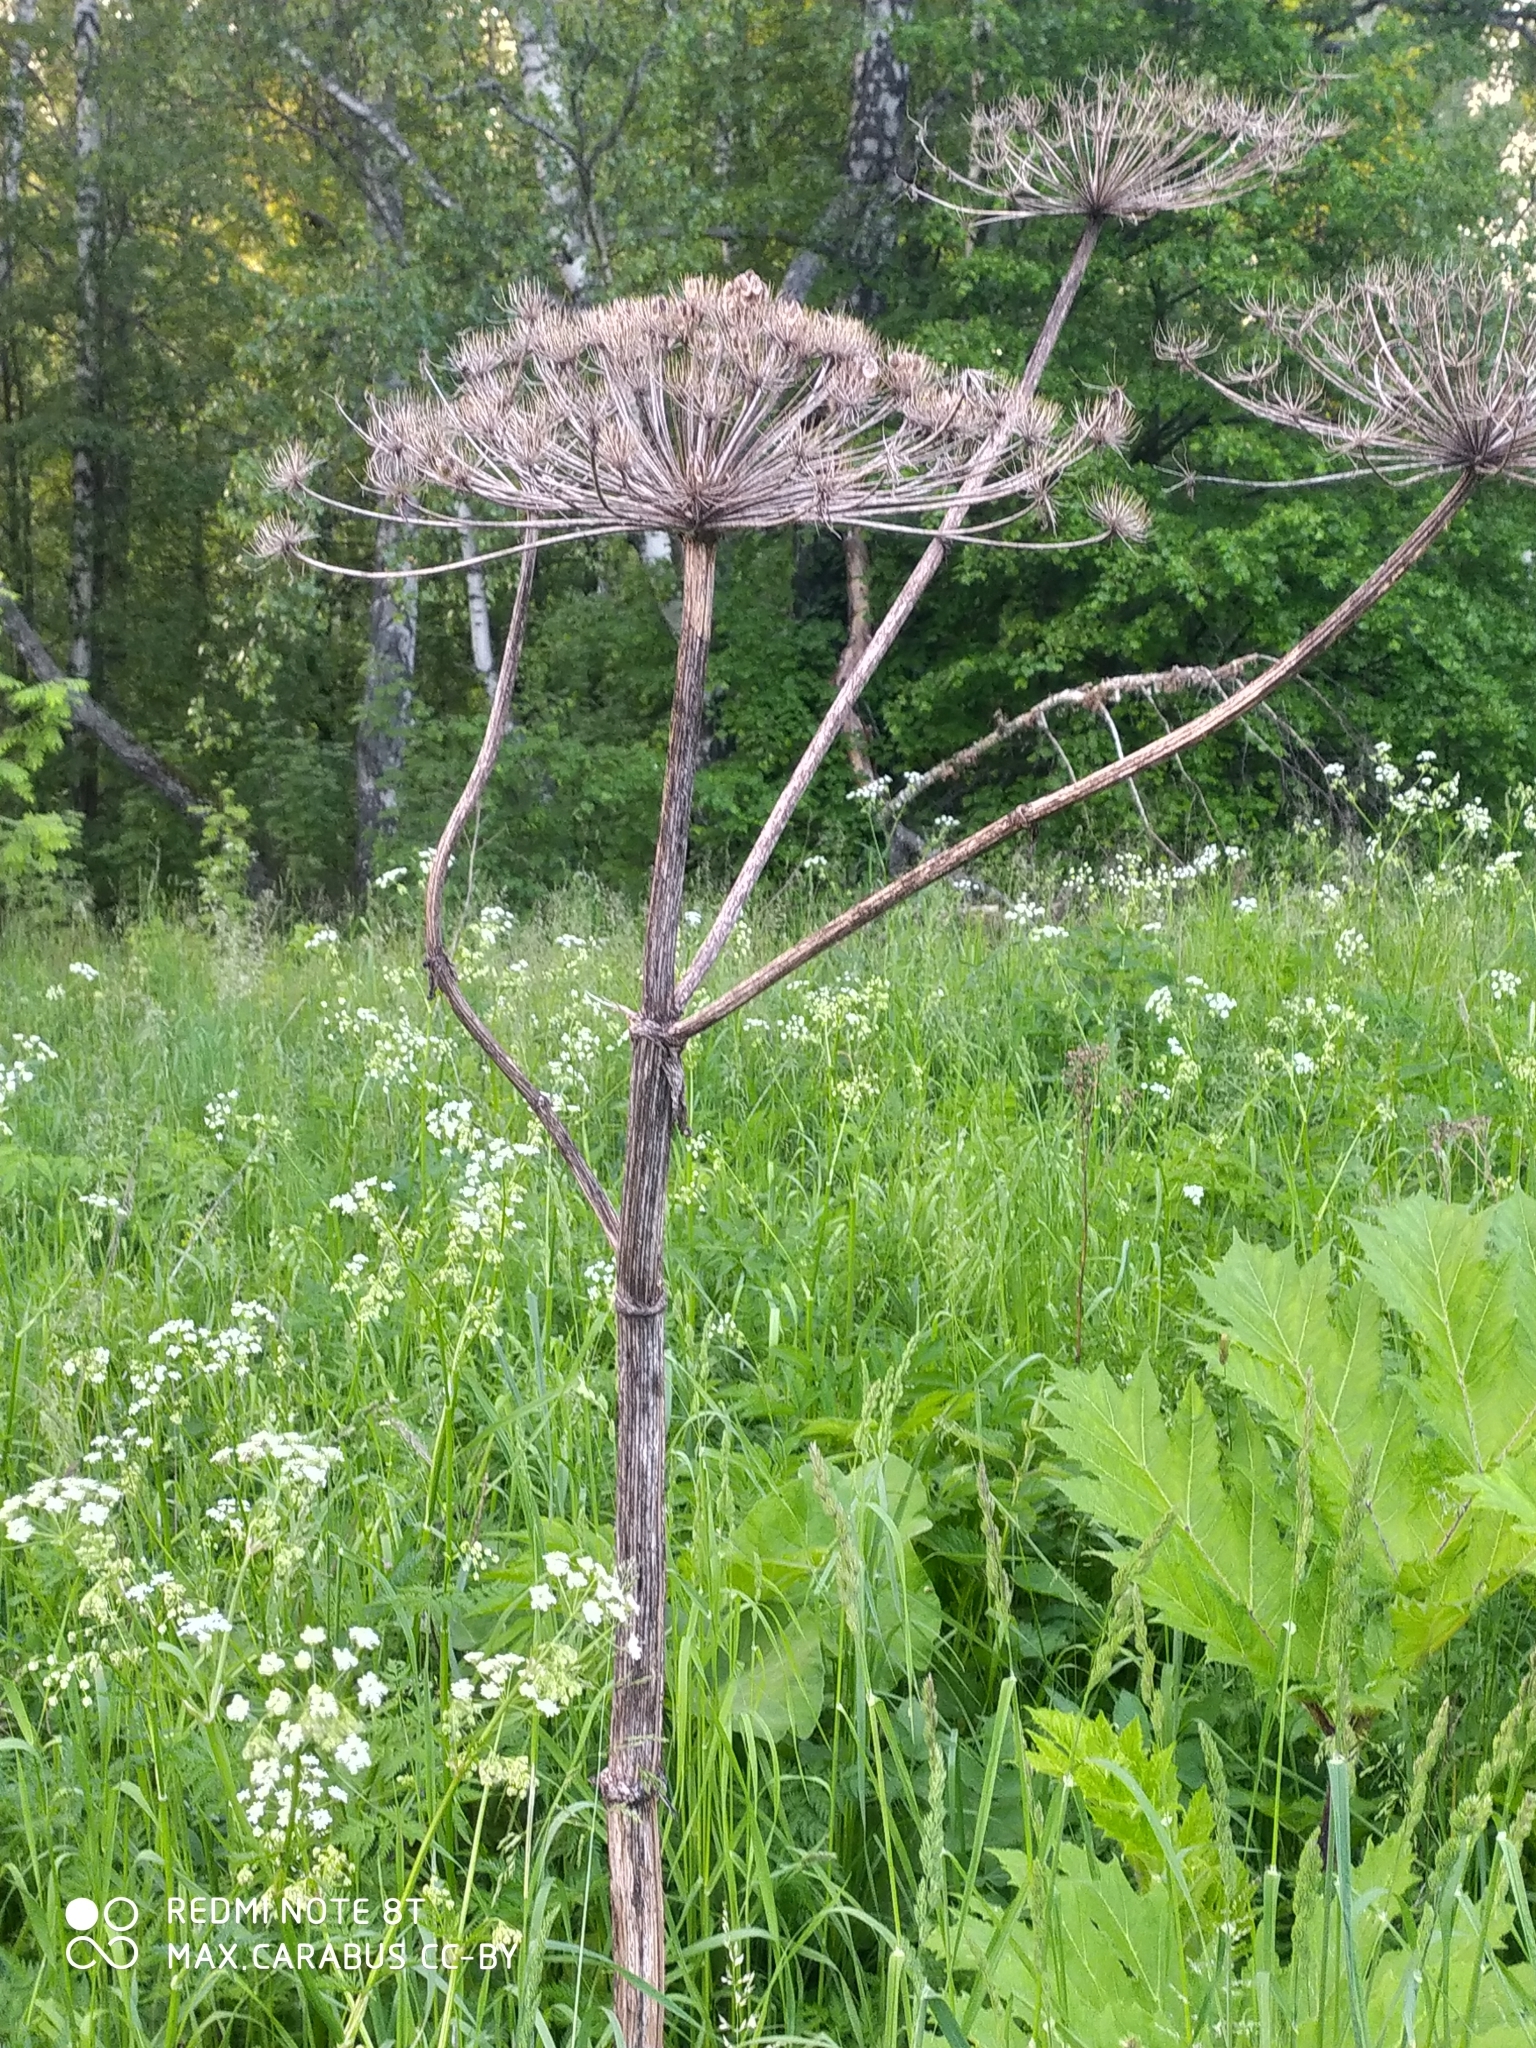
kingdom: Plantae
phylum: Tracheophyta
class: Magnoliopsida
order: Apiales
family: Apiaceae
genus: Heracleum
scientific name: Heracleum sosnowskyi
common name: Sosnowsky's hogweed
